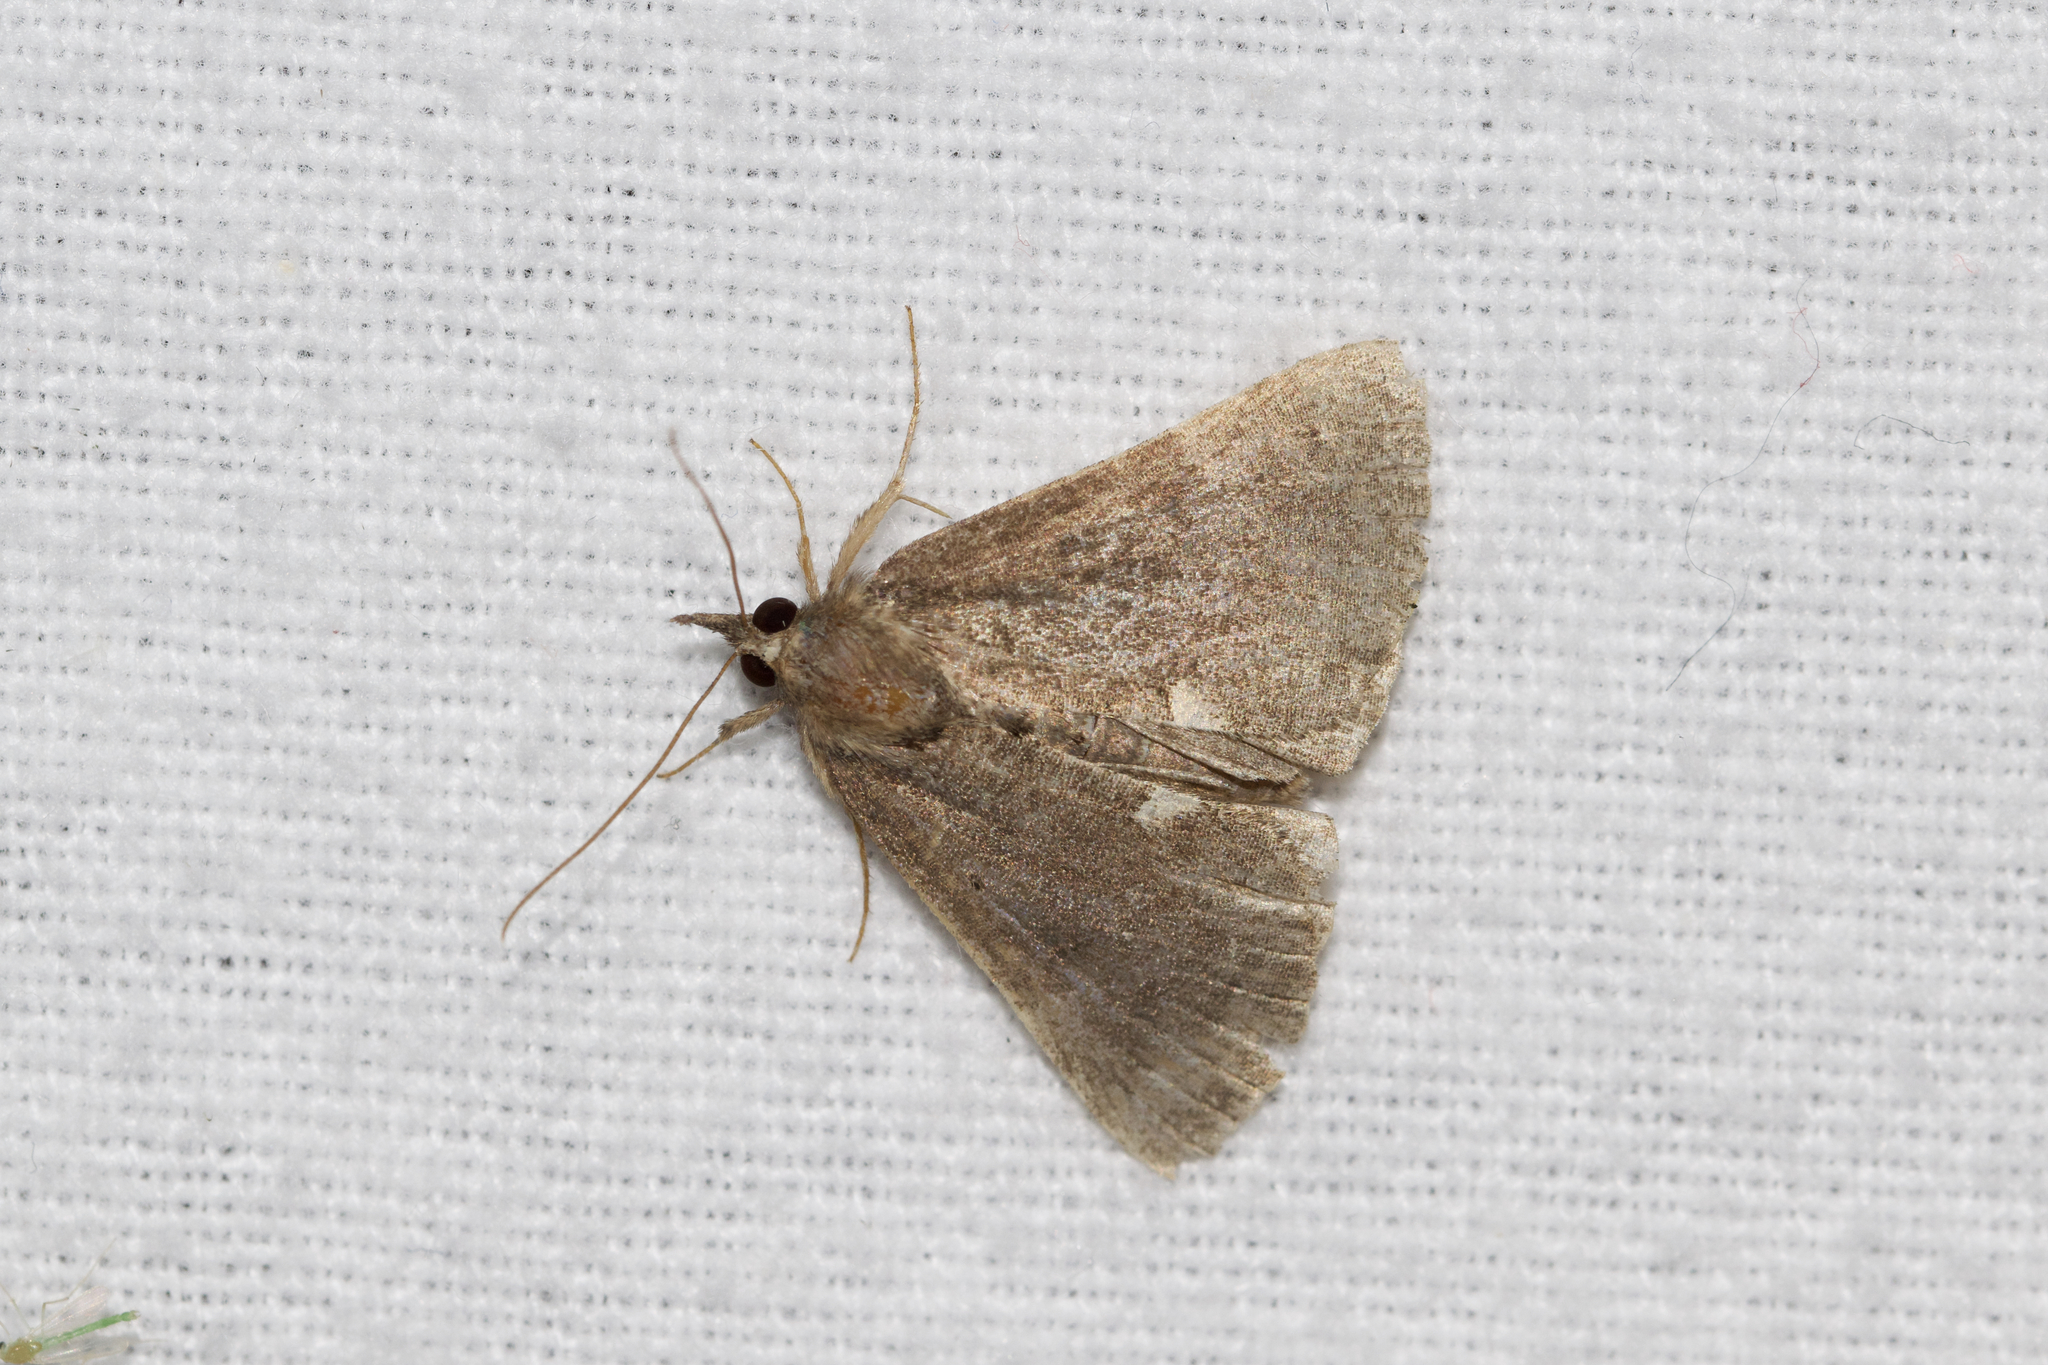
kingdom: Animalia
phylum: Arthropoda
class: Insecta
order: Lepidoptera
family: Erebidae
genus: Hypena
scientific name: Hypena bijugalis
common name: Dimorphic bomolocha moth
